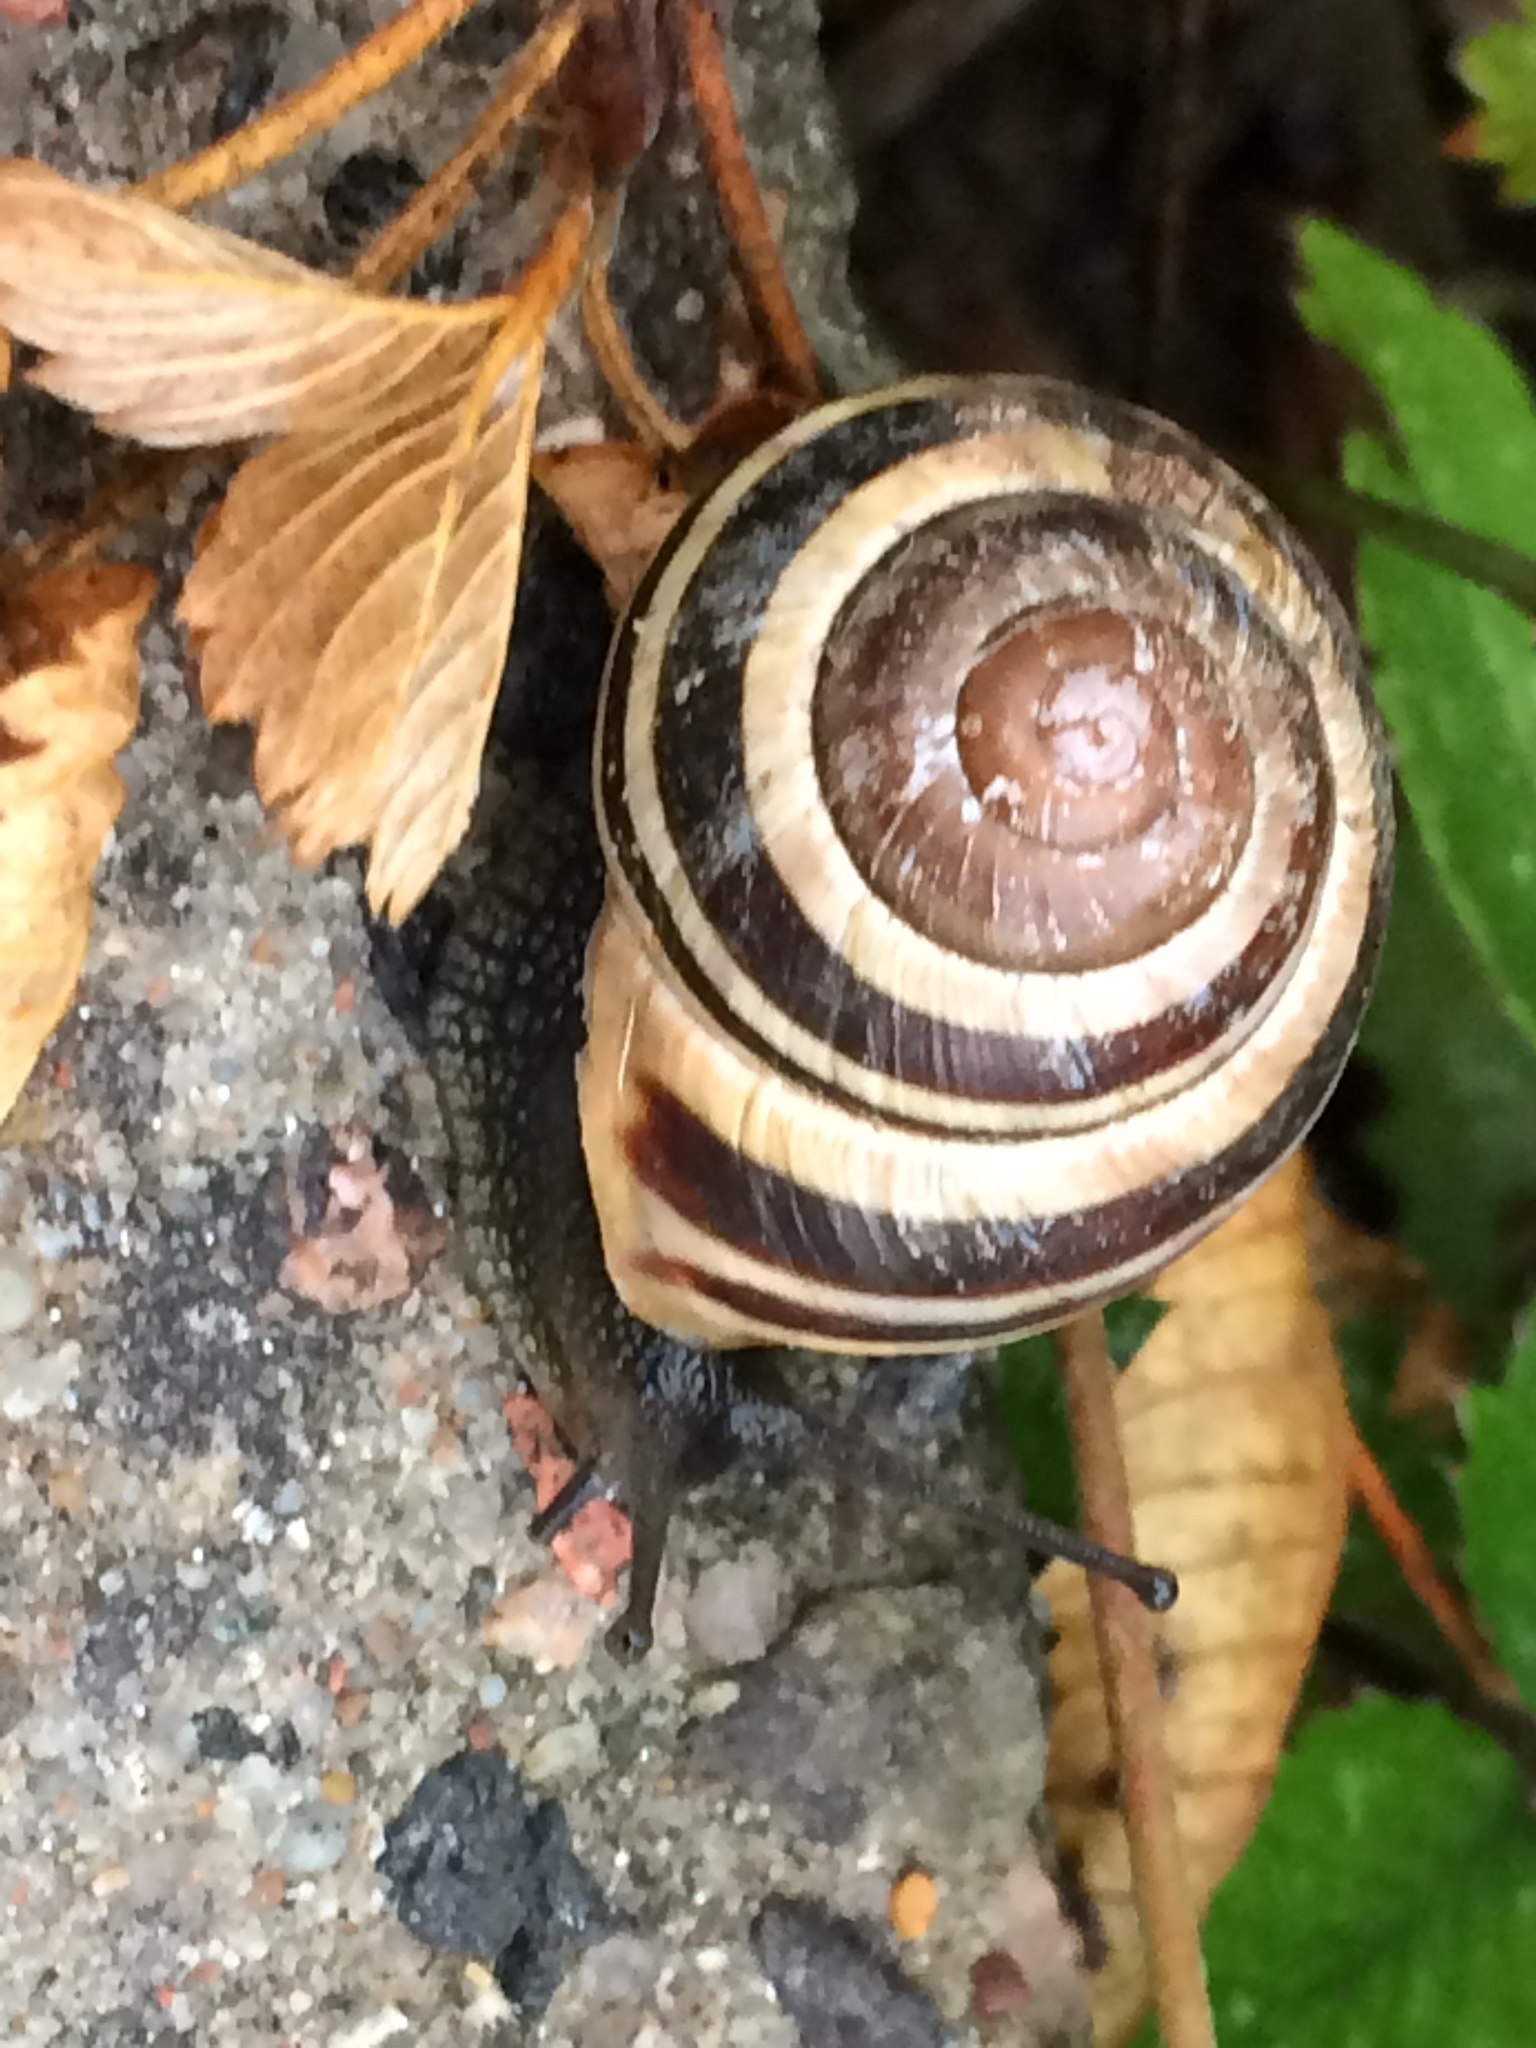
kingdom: Animalia
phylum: Mollusca
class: Gastropoda
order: Stylommatophora
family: Helicidae
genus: Cepaea
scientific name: Cepaea nemoralis
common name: Grovesnail
